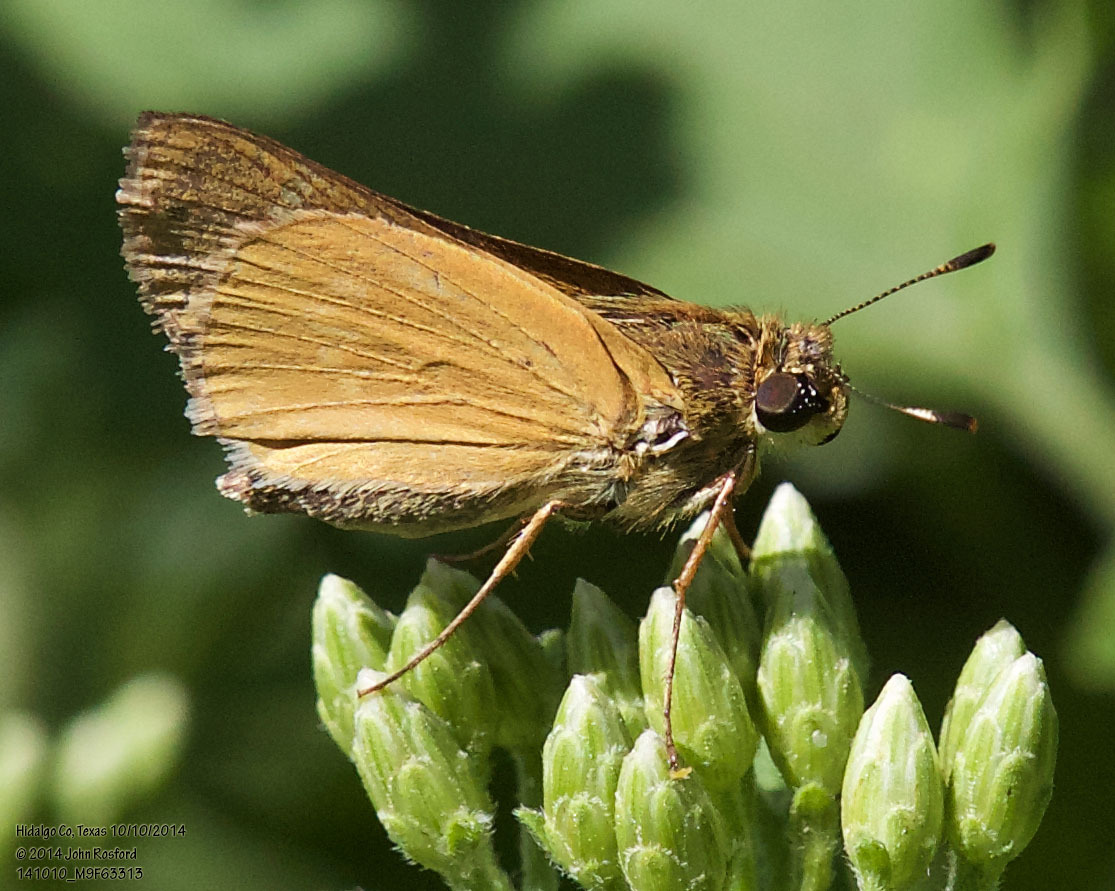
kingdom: Animalia
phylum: Arthropoda
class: Insecta
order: Lepidoptera
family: Hesperiidae
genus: Mellana
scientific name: Mellana eulogius
